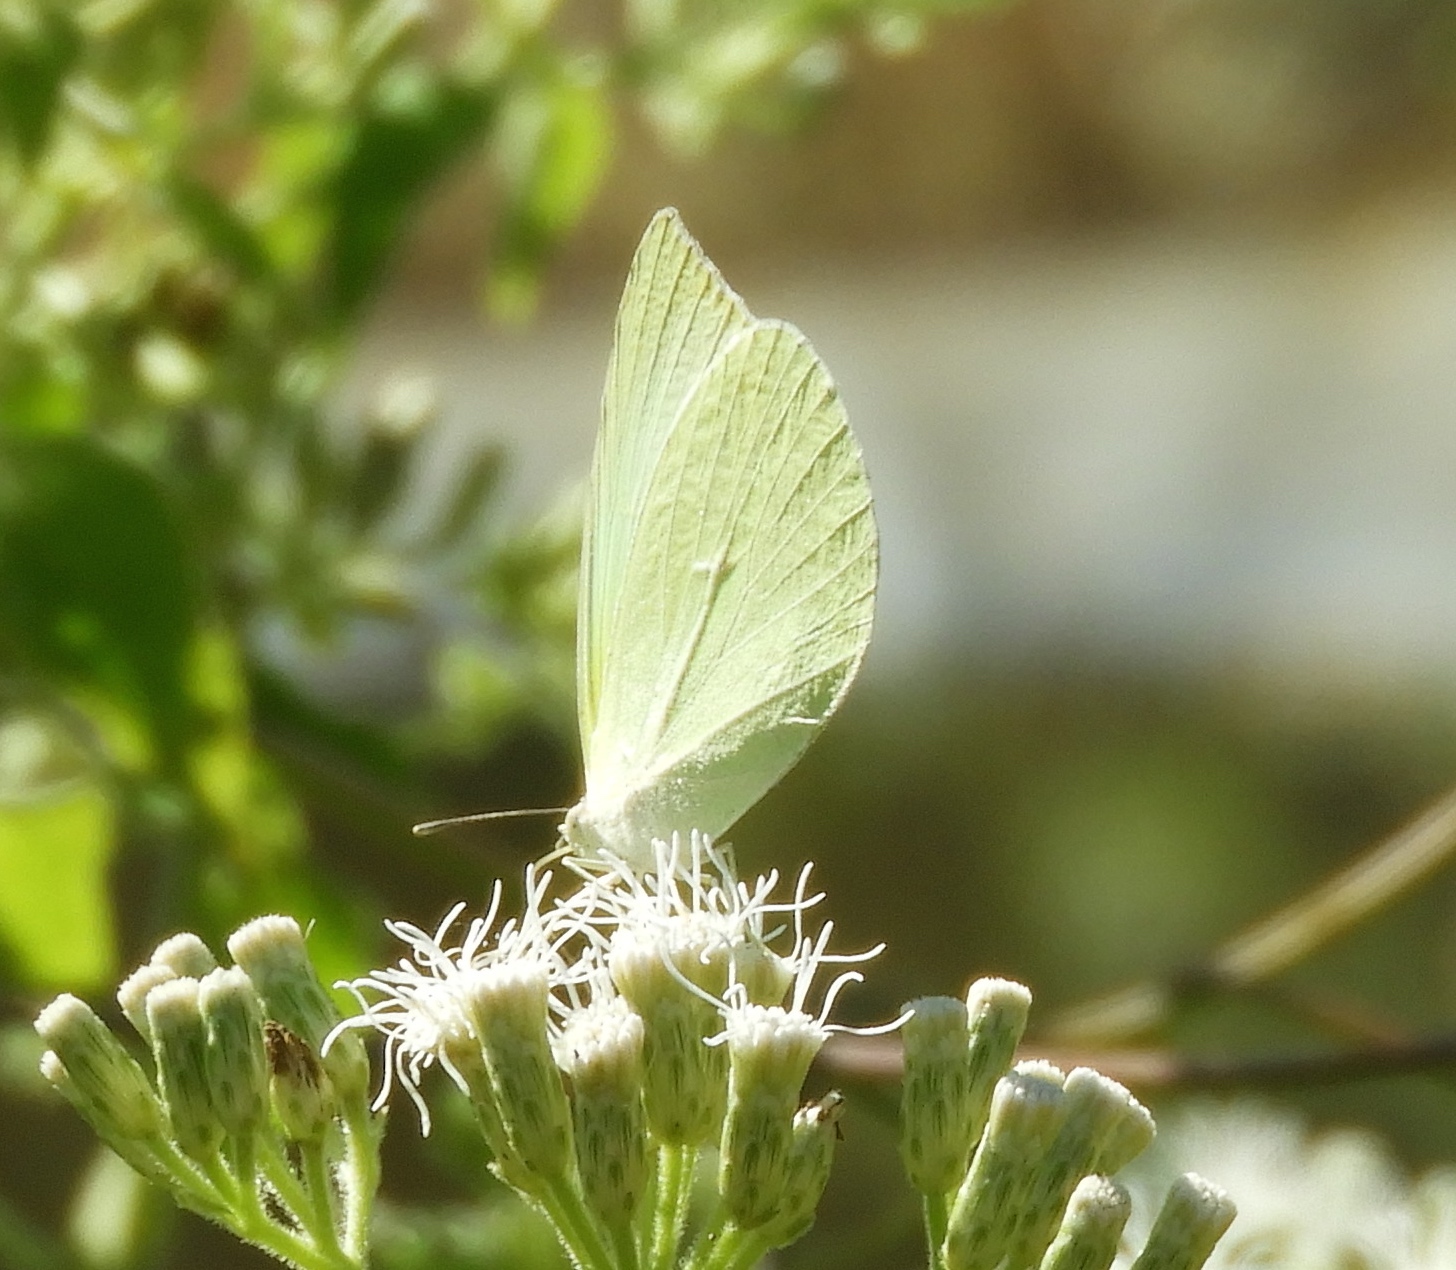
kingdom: Animalia
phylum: Arthropoda
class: Insecta
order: Lepidoptera
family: Pieridae
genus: Kricogonia
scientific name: Kricogonia lyside
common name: Guayacan sulphur,
